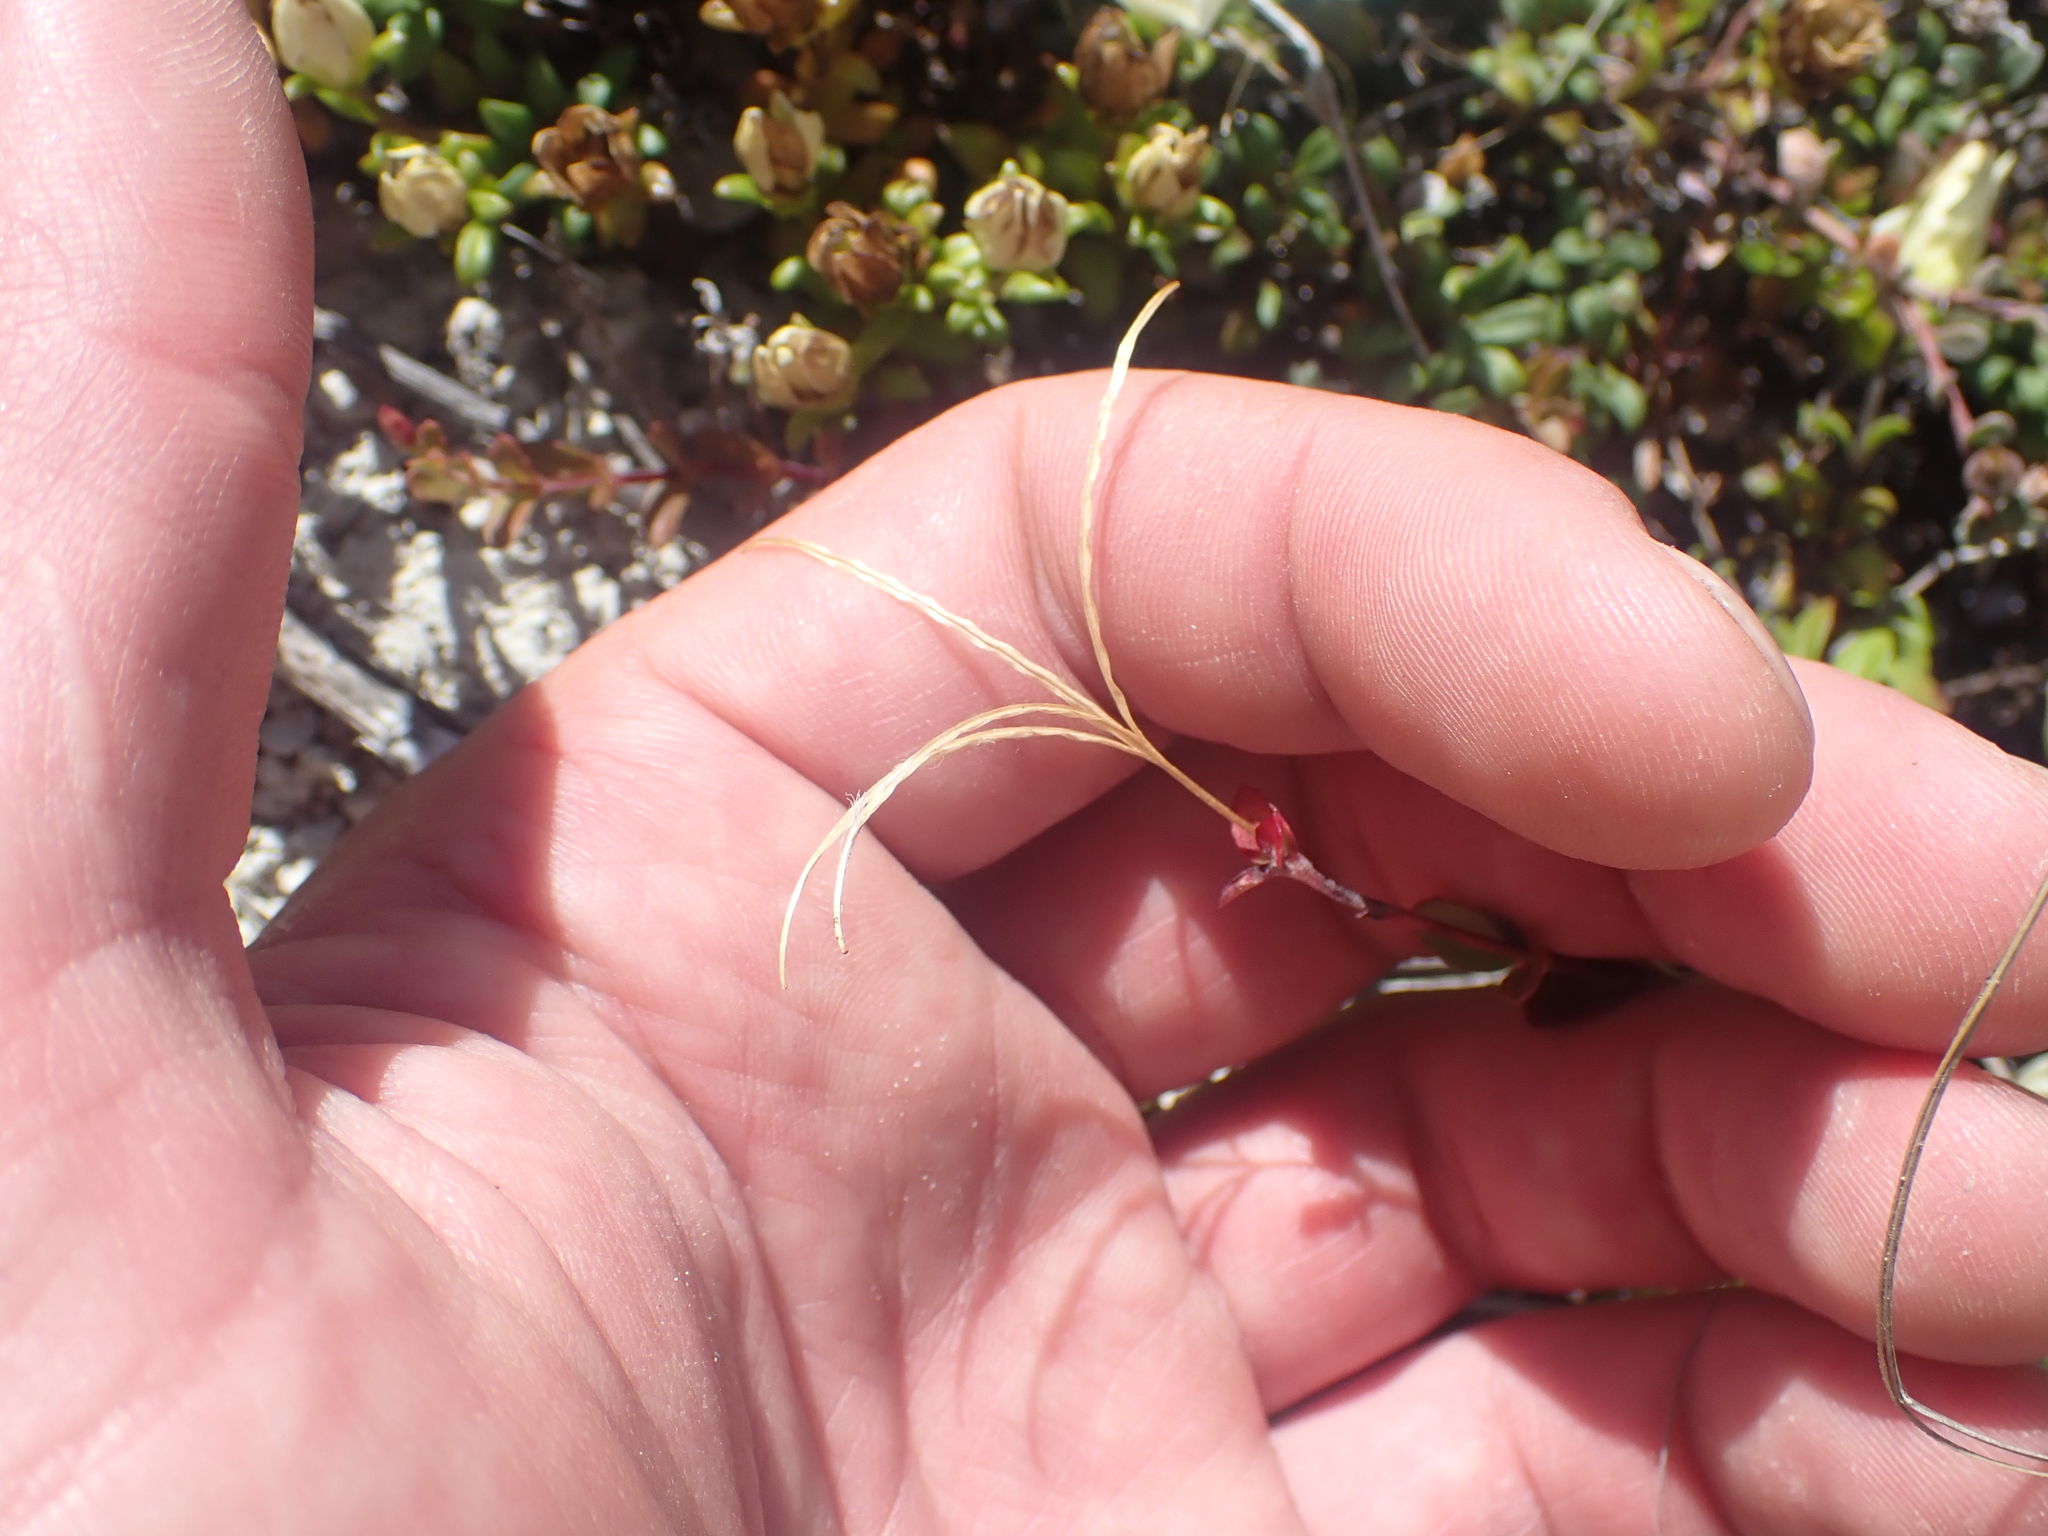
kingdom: Plantae
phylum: Tracheophyta
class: Magnoliopsida
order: Myrtales
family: Onagraceae
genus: Epilobium
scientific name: Epilobium wilsonii
